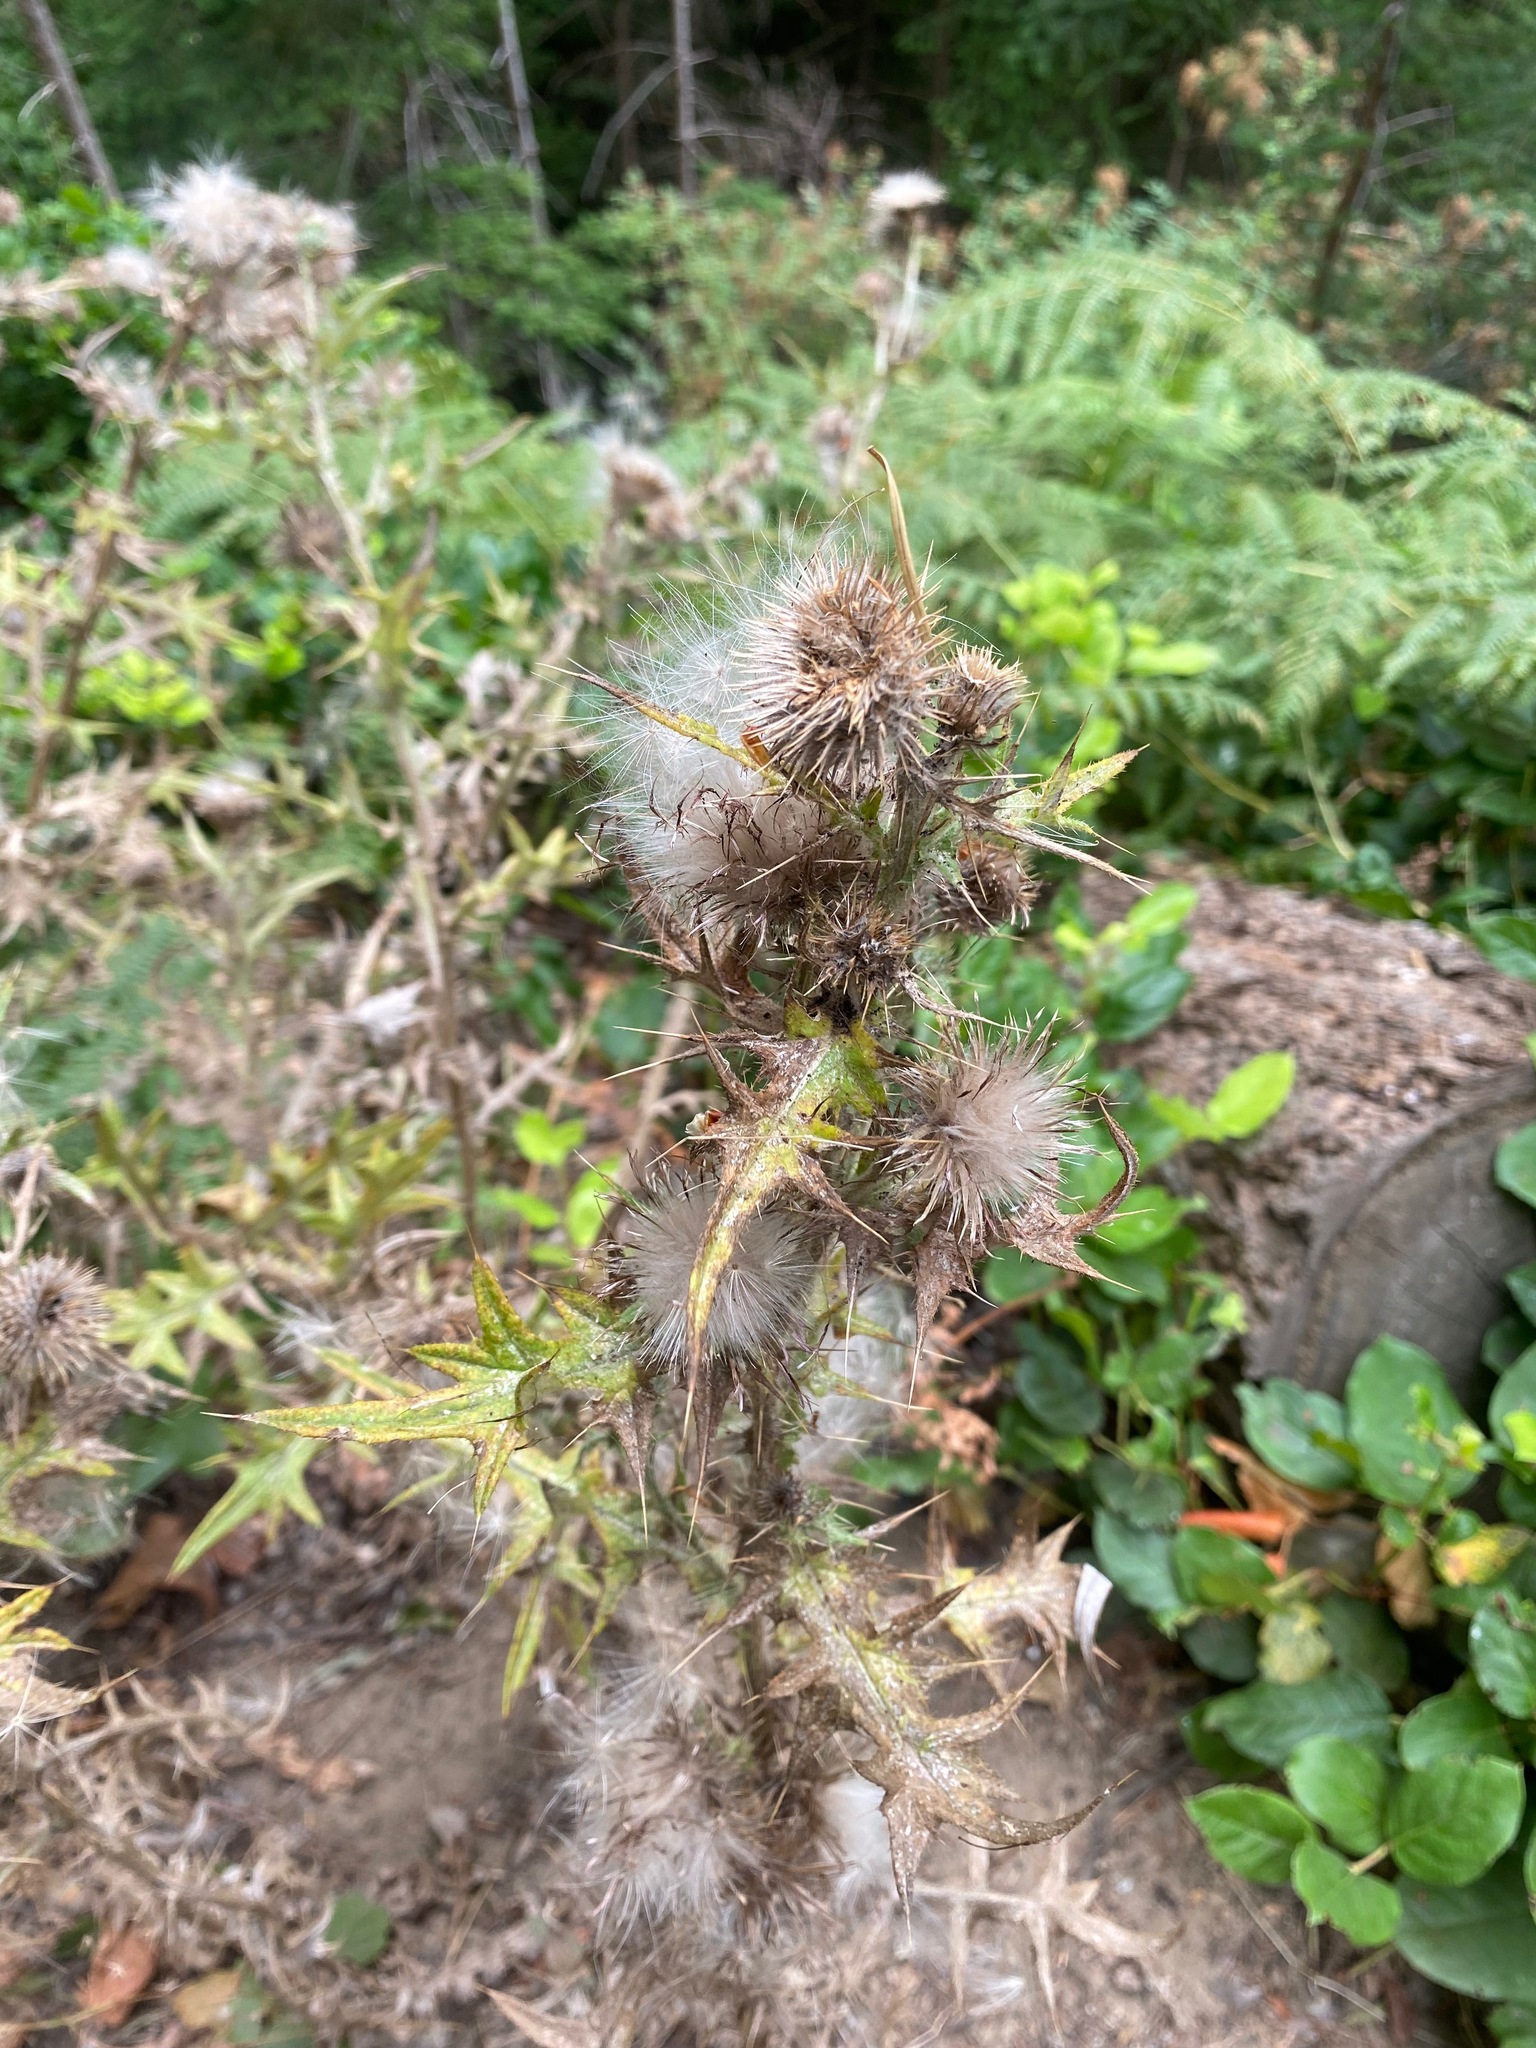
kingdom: Plantae
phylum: Tracheophyta
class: Magnoliopsida
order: Asterales
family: Asteraceae
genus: Cirsium
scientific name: Cirsium vulgare
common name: Bull thistle
